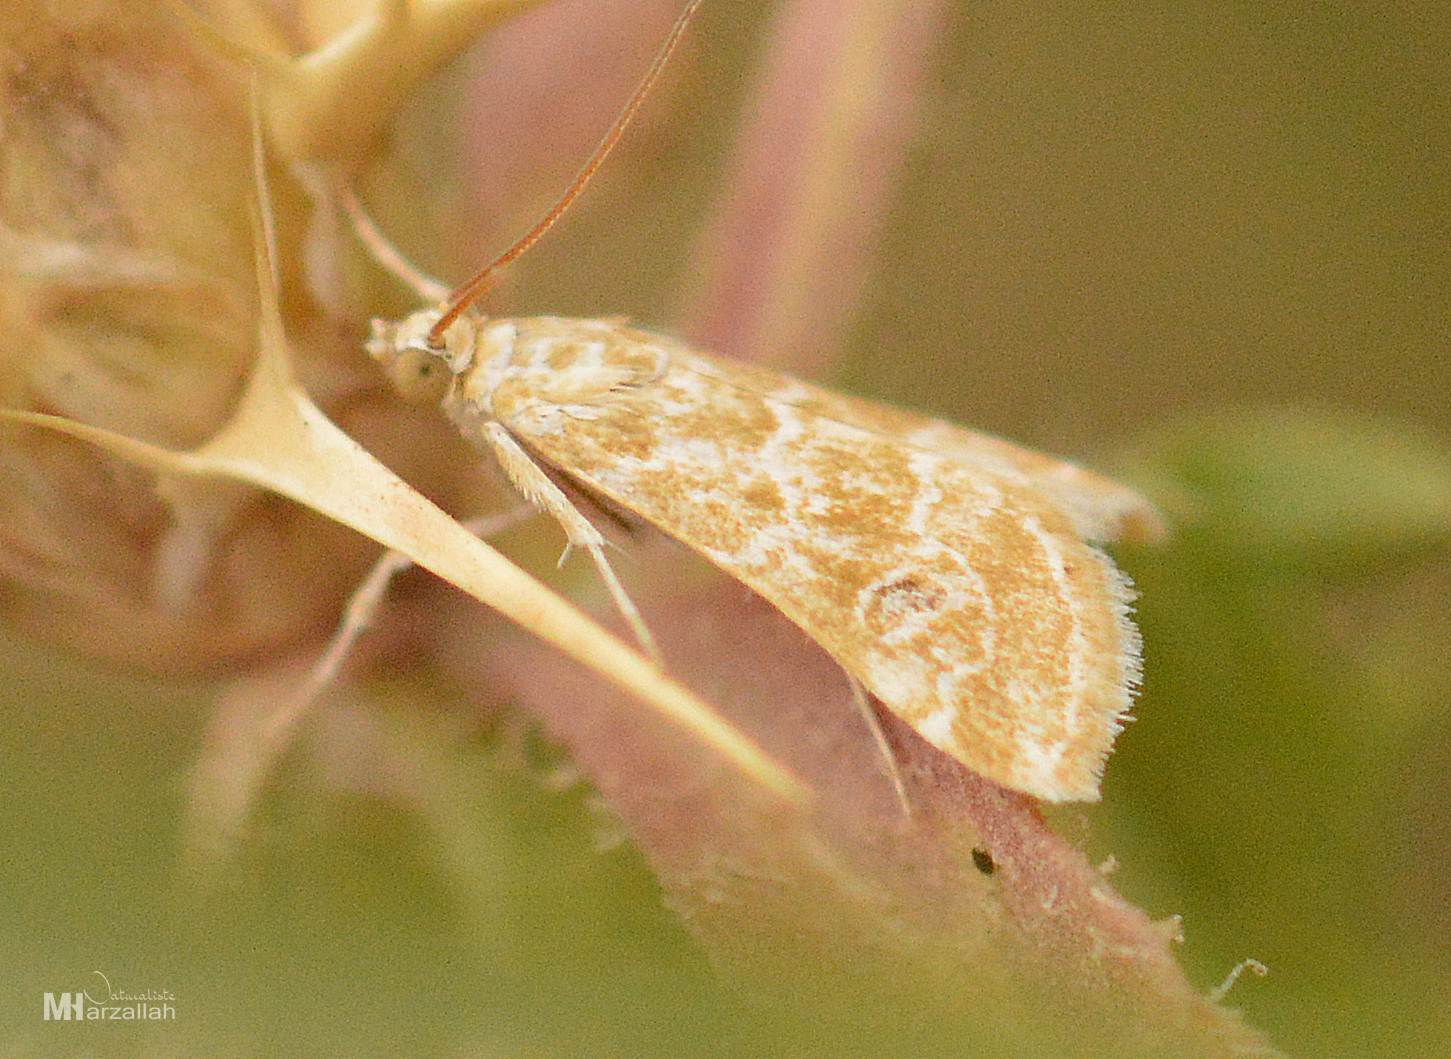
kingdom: Animalia
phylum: Arthropoda
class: Insecta
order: Lepidoptera
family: Crambidae
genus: Hellula
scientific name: Hellula undalis
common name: Cabbage webworm
